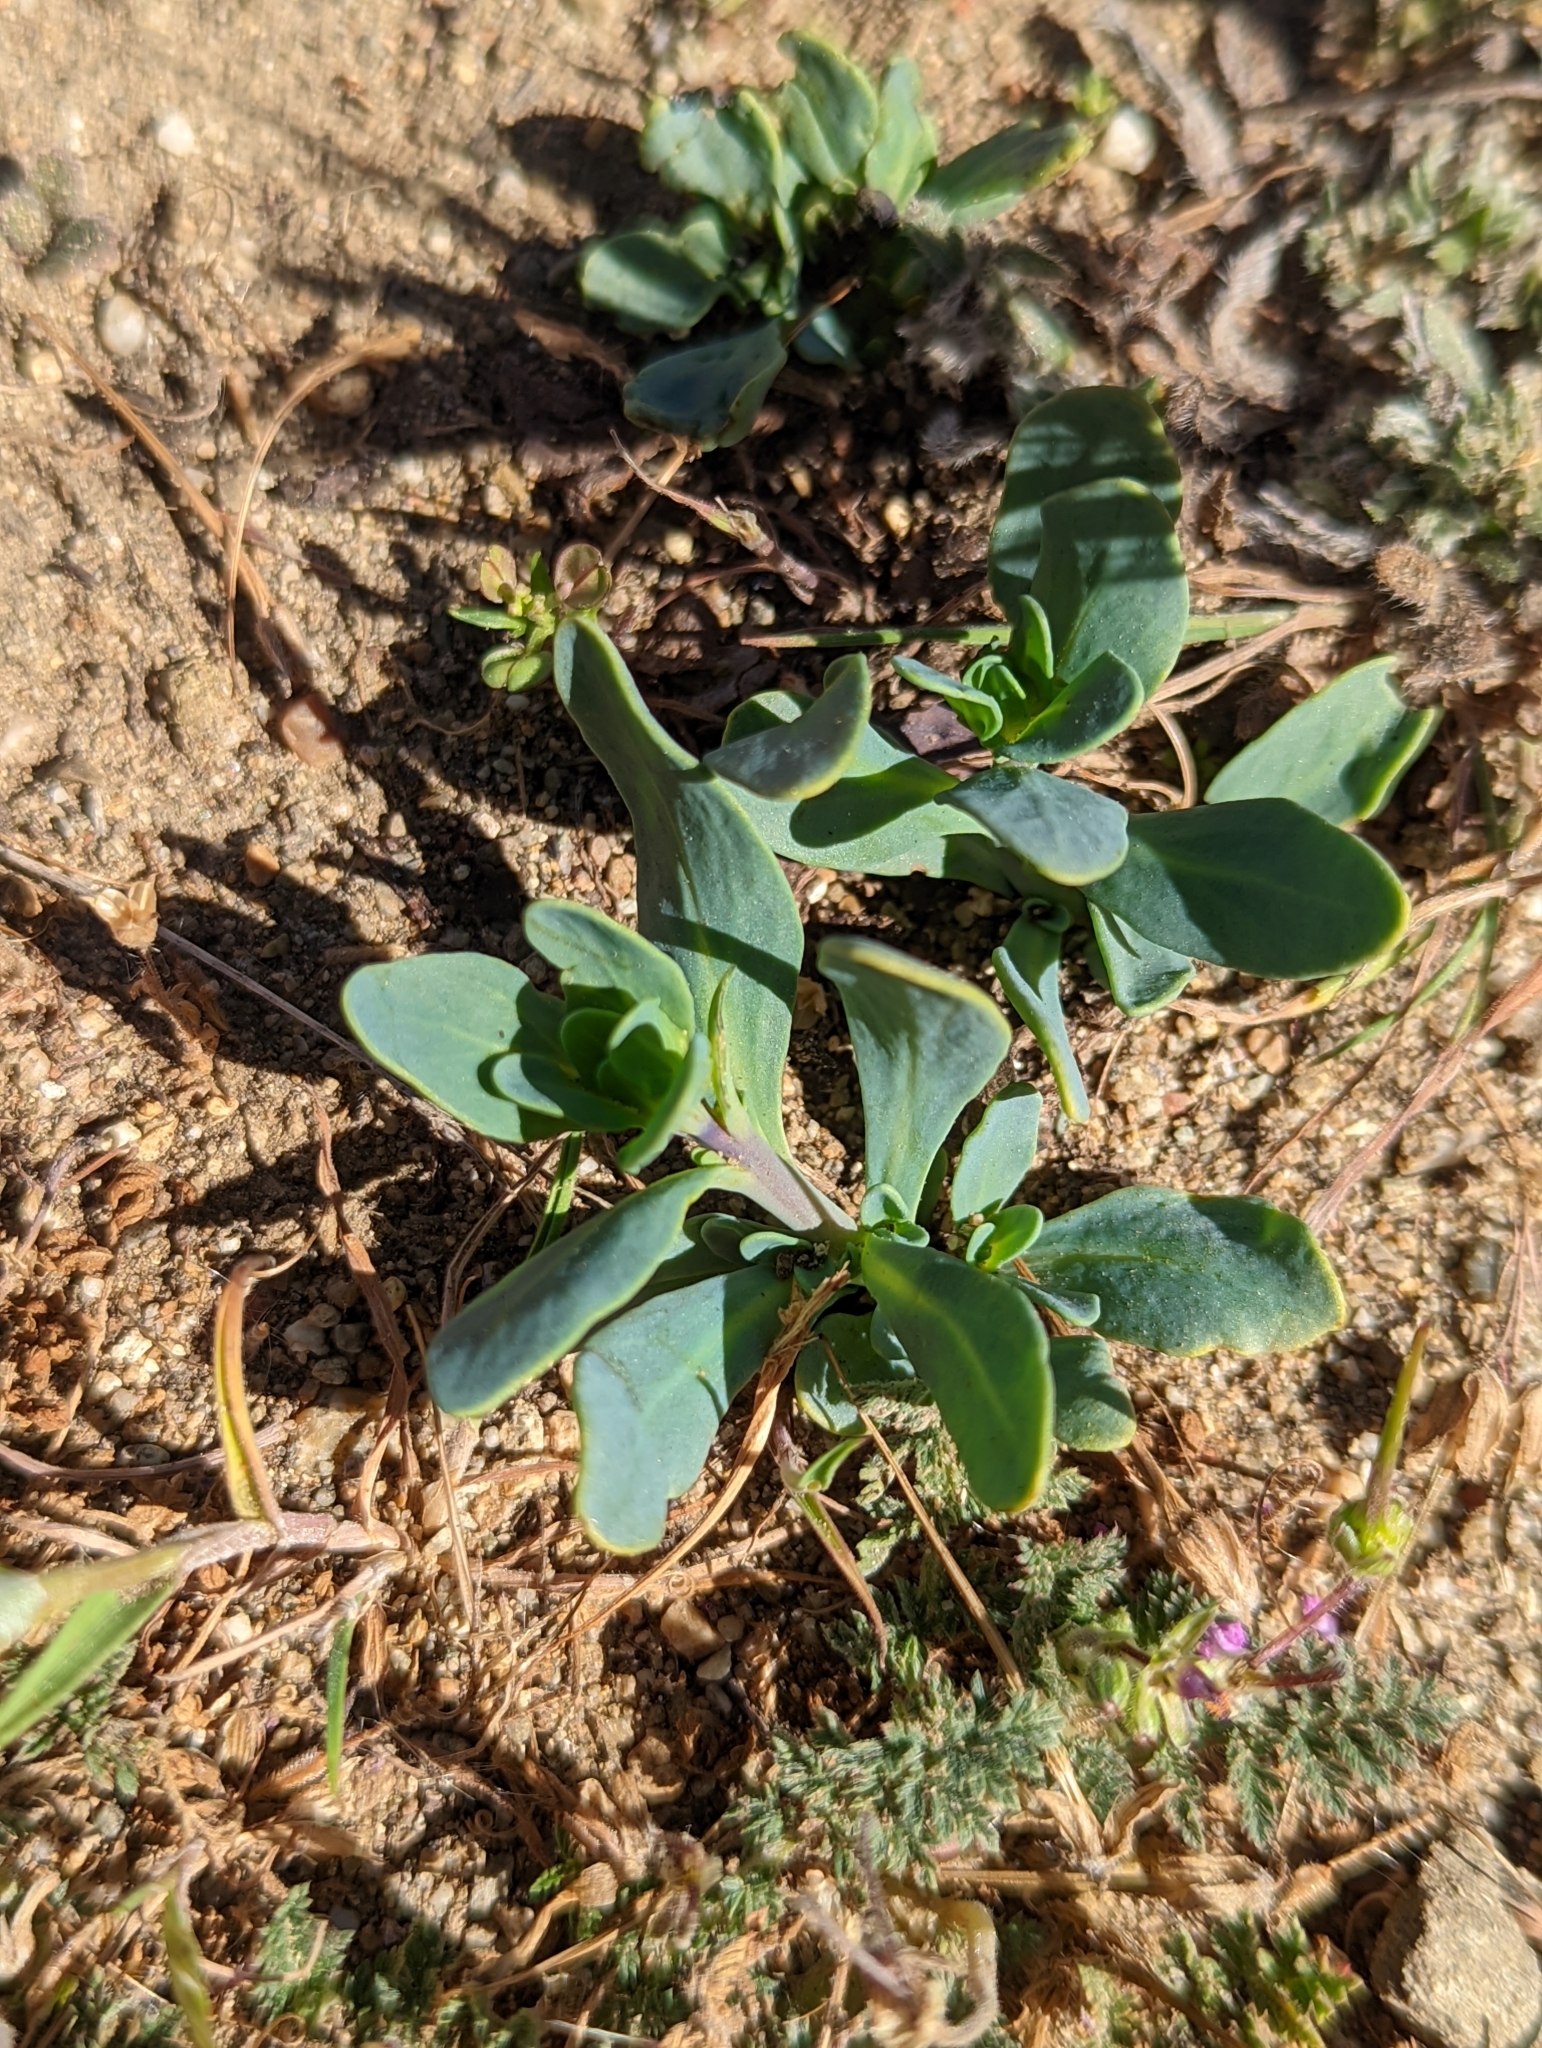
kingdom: Plantae
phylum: Tracheophyta
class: Magnoliopsida
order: Boraginales
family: Heliotropiaceae
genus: Heliotropium
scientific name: Heliotropium curassavicum
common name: Seaside heliotrope
